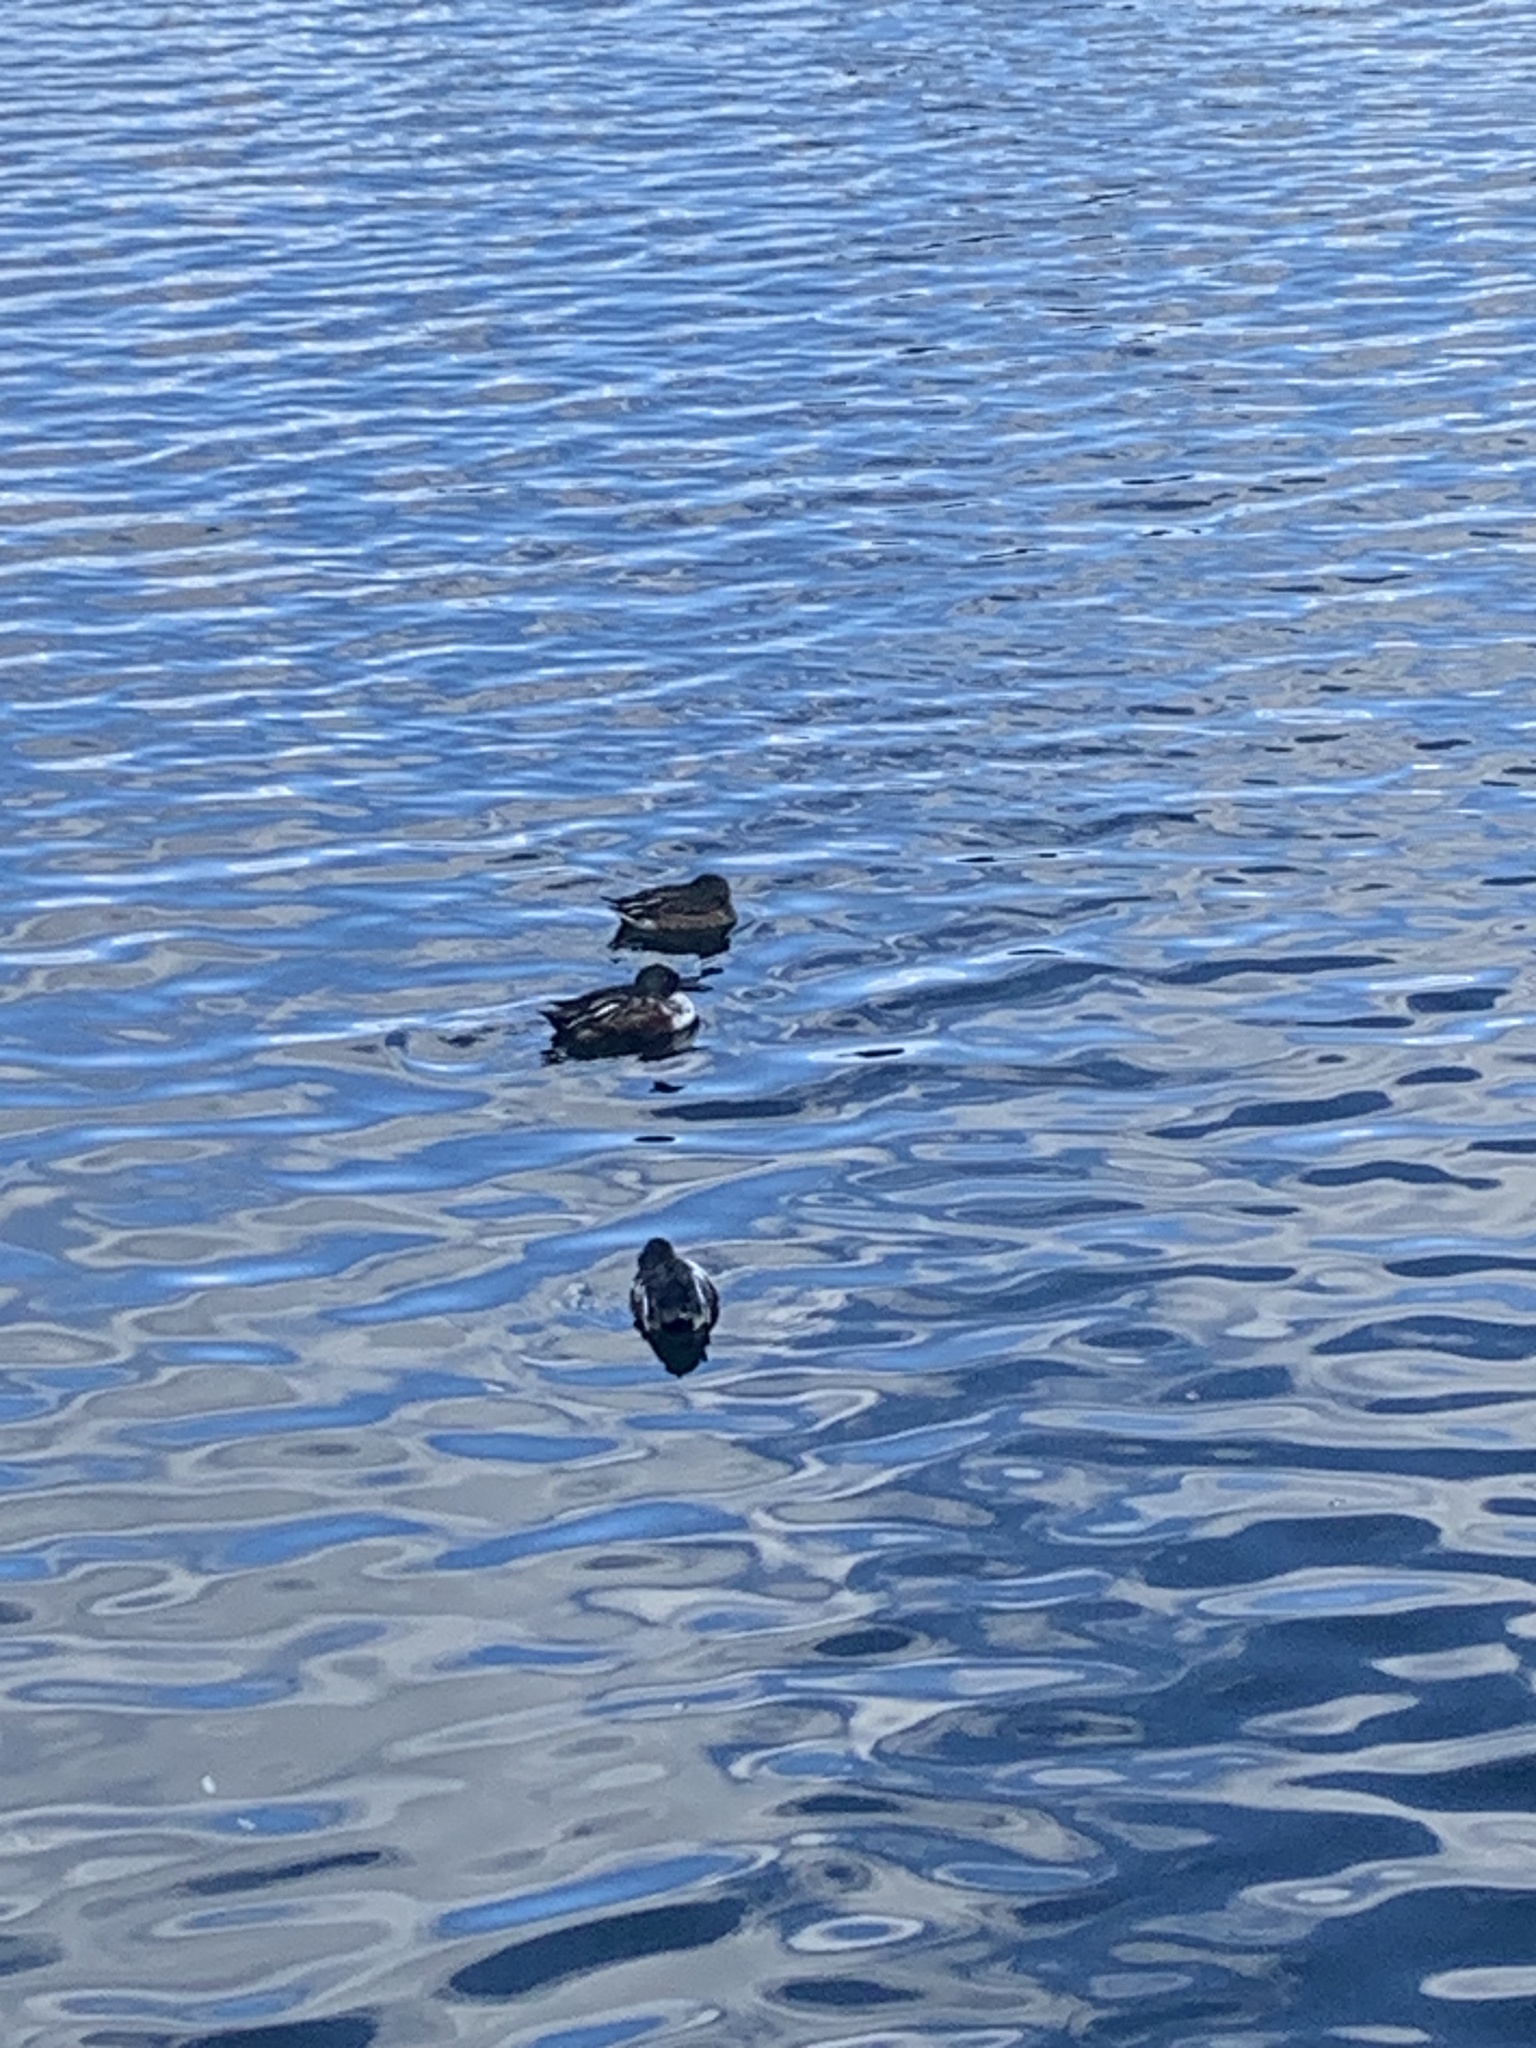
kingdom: Animalia
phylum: Chordata
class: Aves
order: Anseriformes
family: Anatidae
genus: Spatula
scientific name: Spatula clypeata
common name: Northern shoveler
